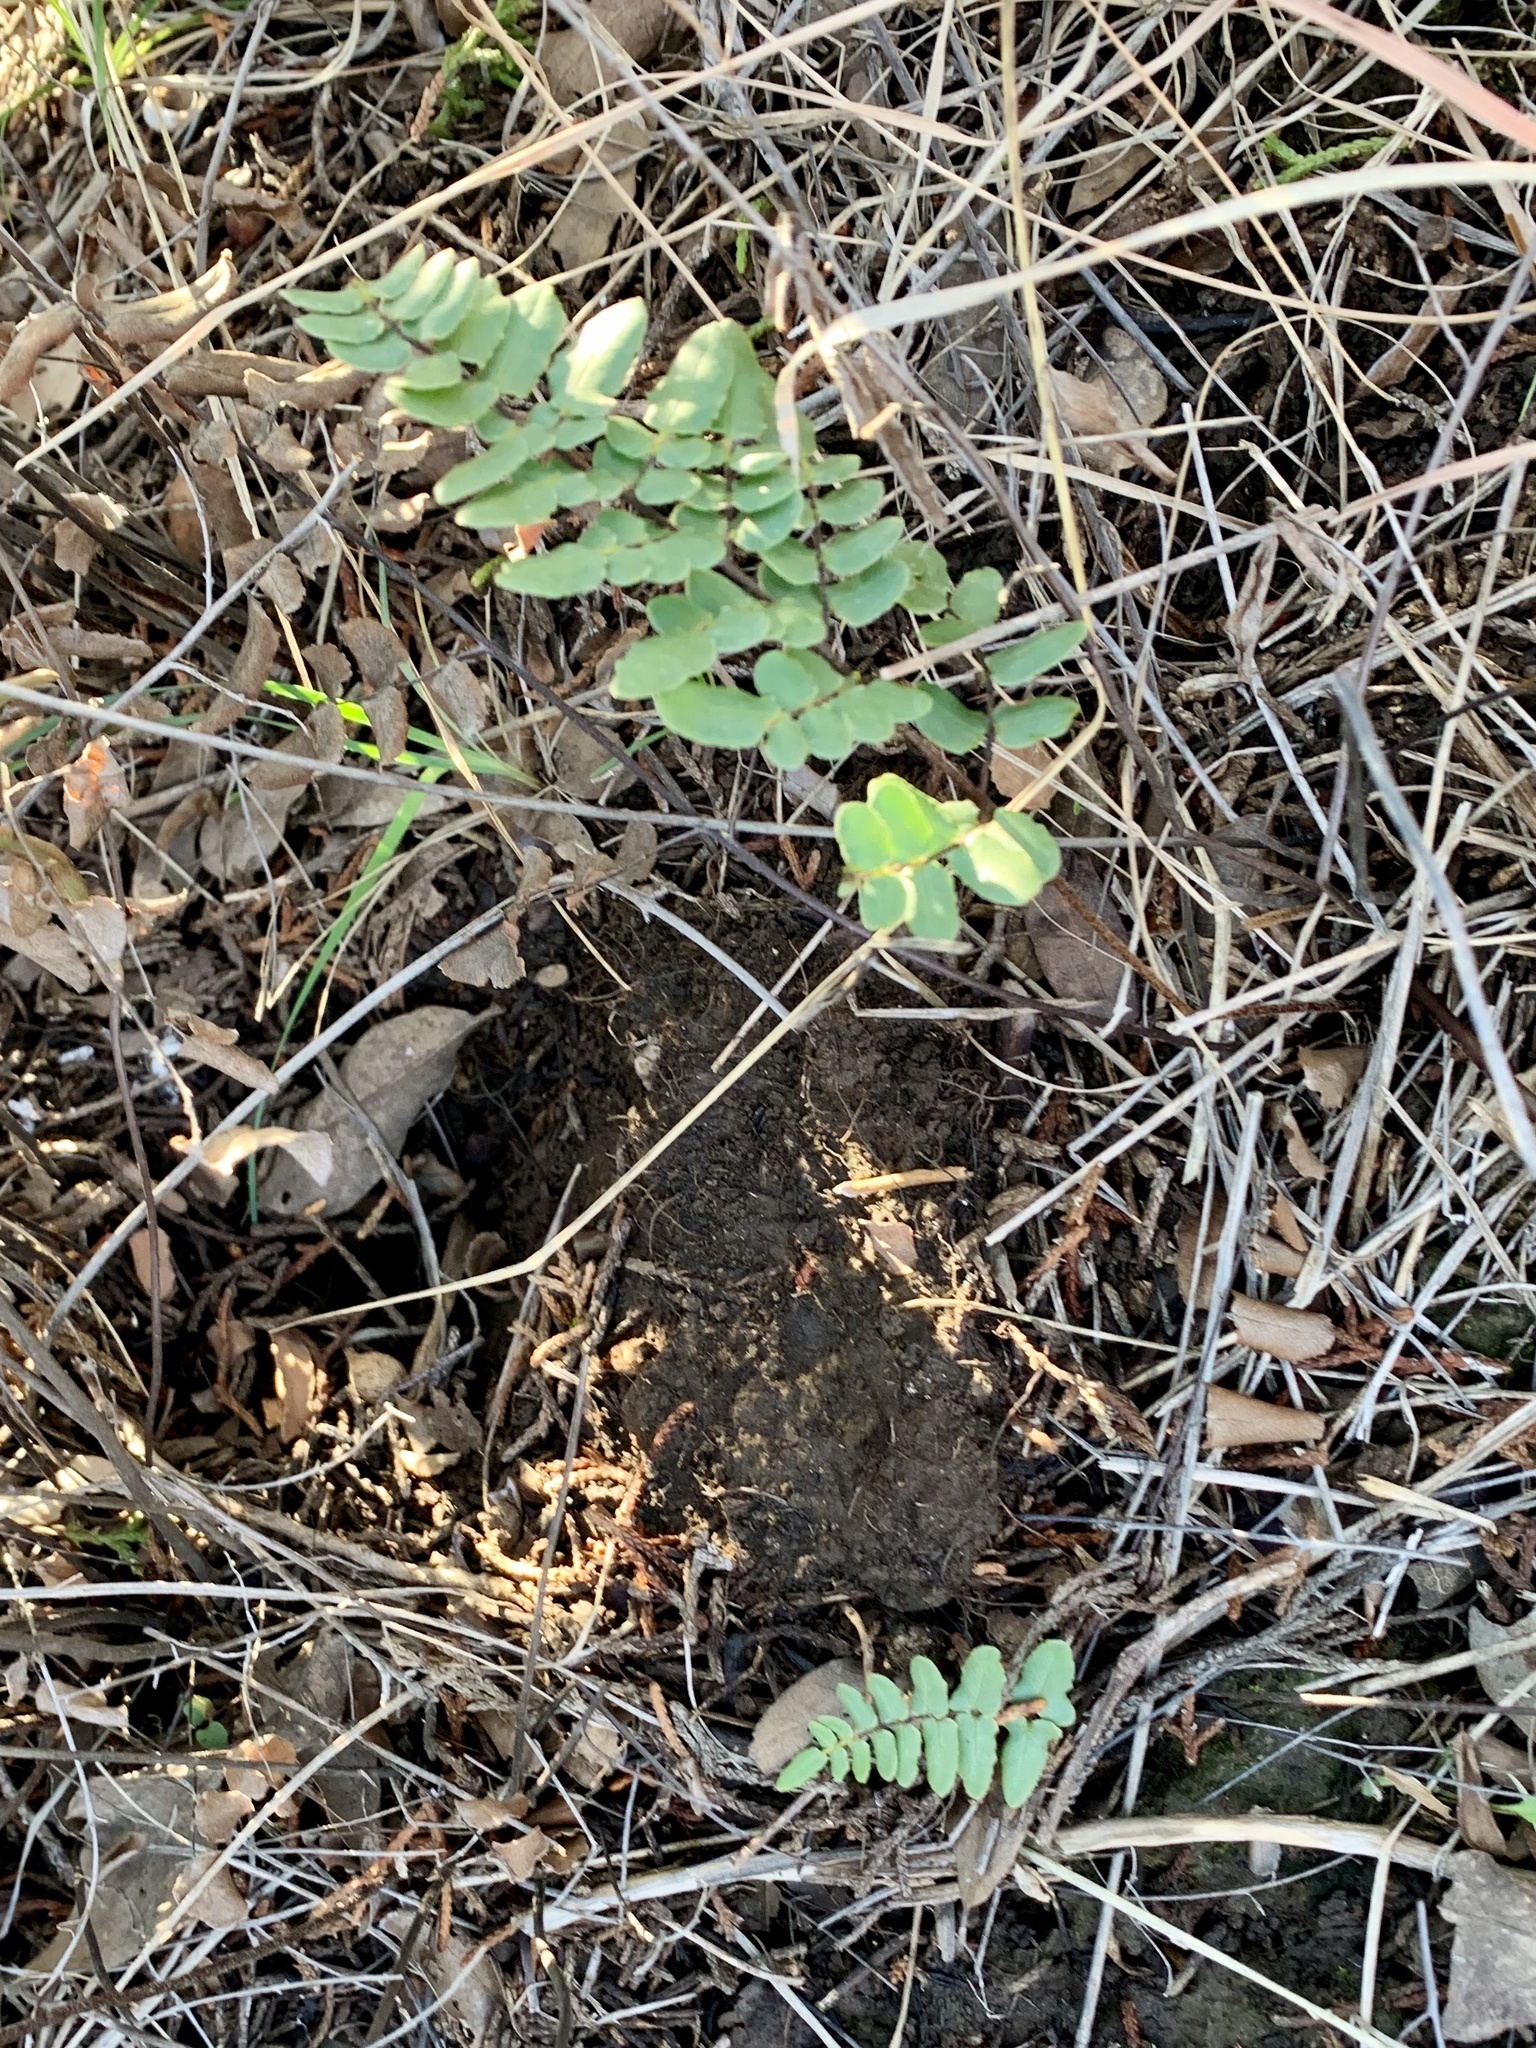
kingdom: Plantae
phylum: Tracheophyta
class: Polypodiopsida
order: Polypodiales
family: Pteridaceae
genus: Pellaea
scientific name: Pellaea atropurpurea
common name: Hairy cliffbrake
